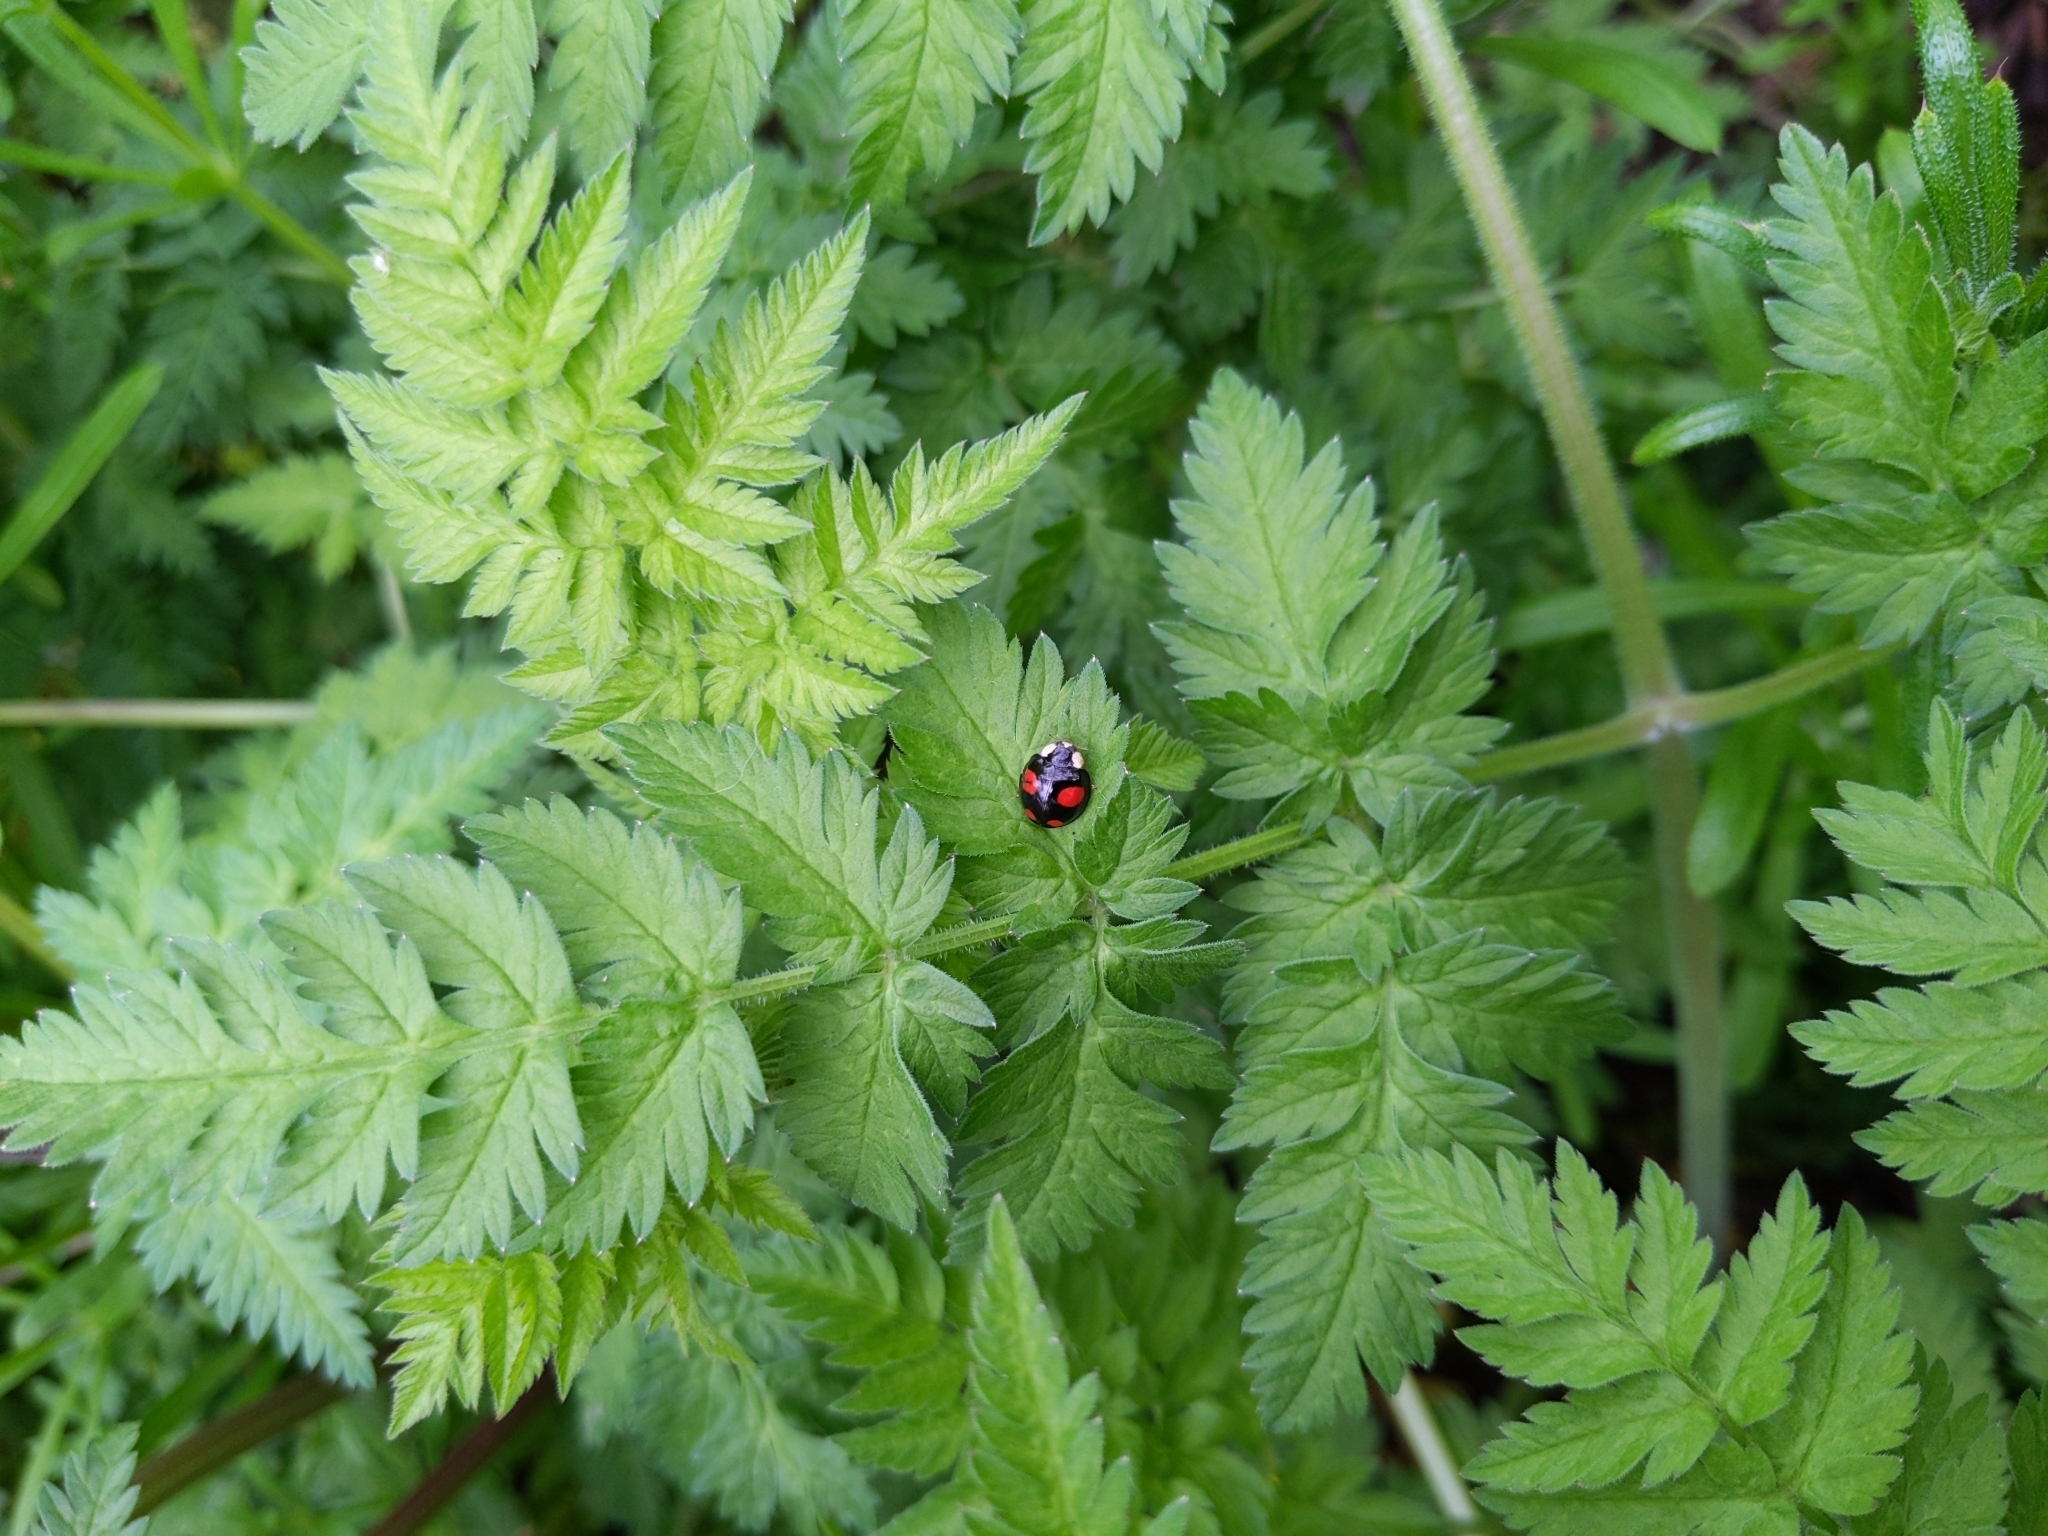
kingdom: Animalia
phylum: Arthropoda
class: Insecta
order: Coleoptera
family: Coccinellidae
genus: Harmonia
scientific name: Harmonia axyridis
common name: Harlequin ladybird
